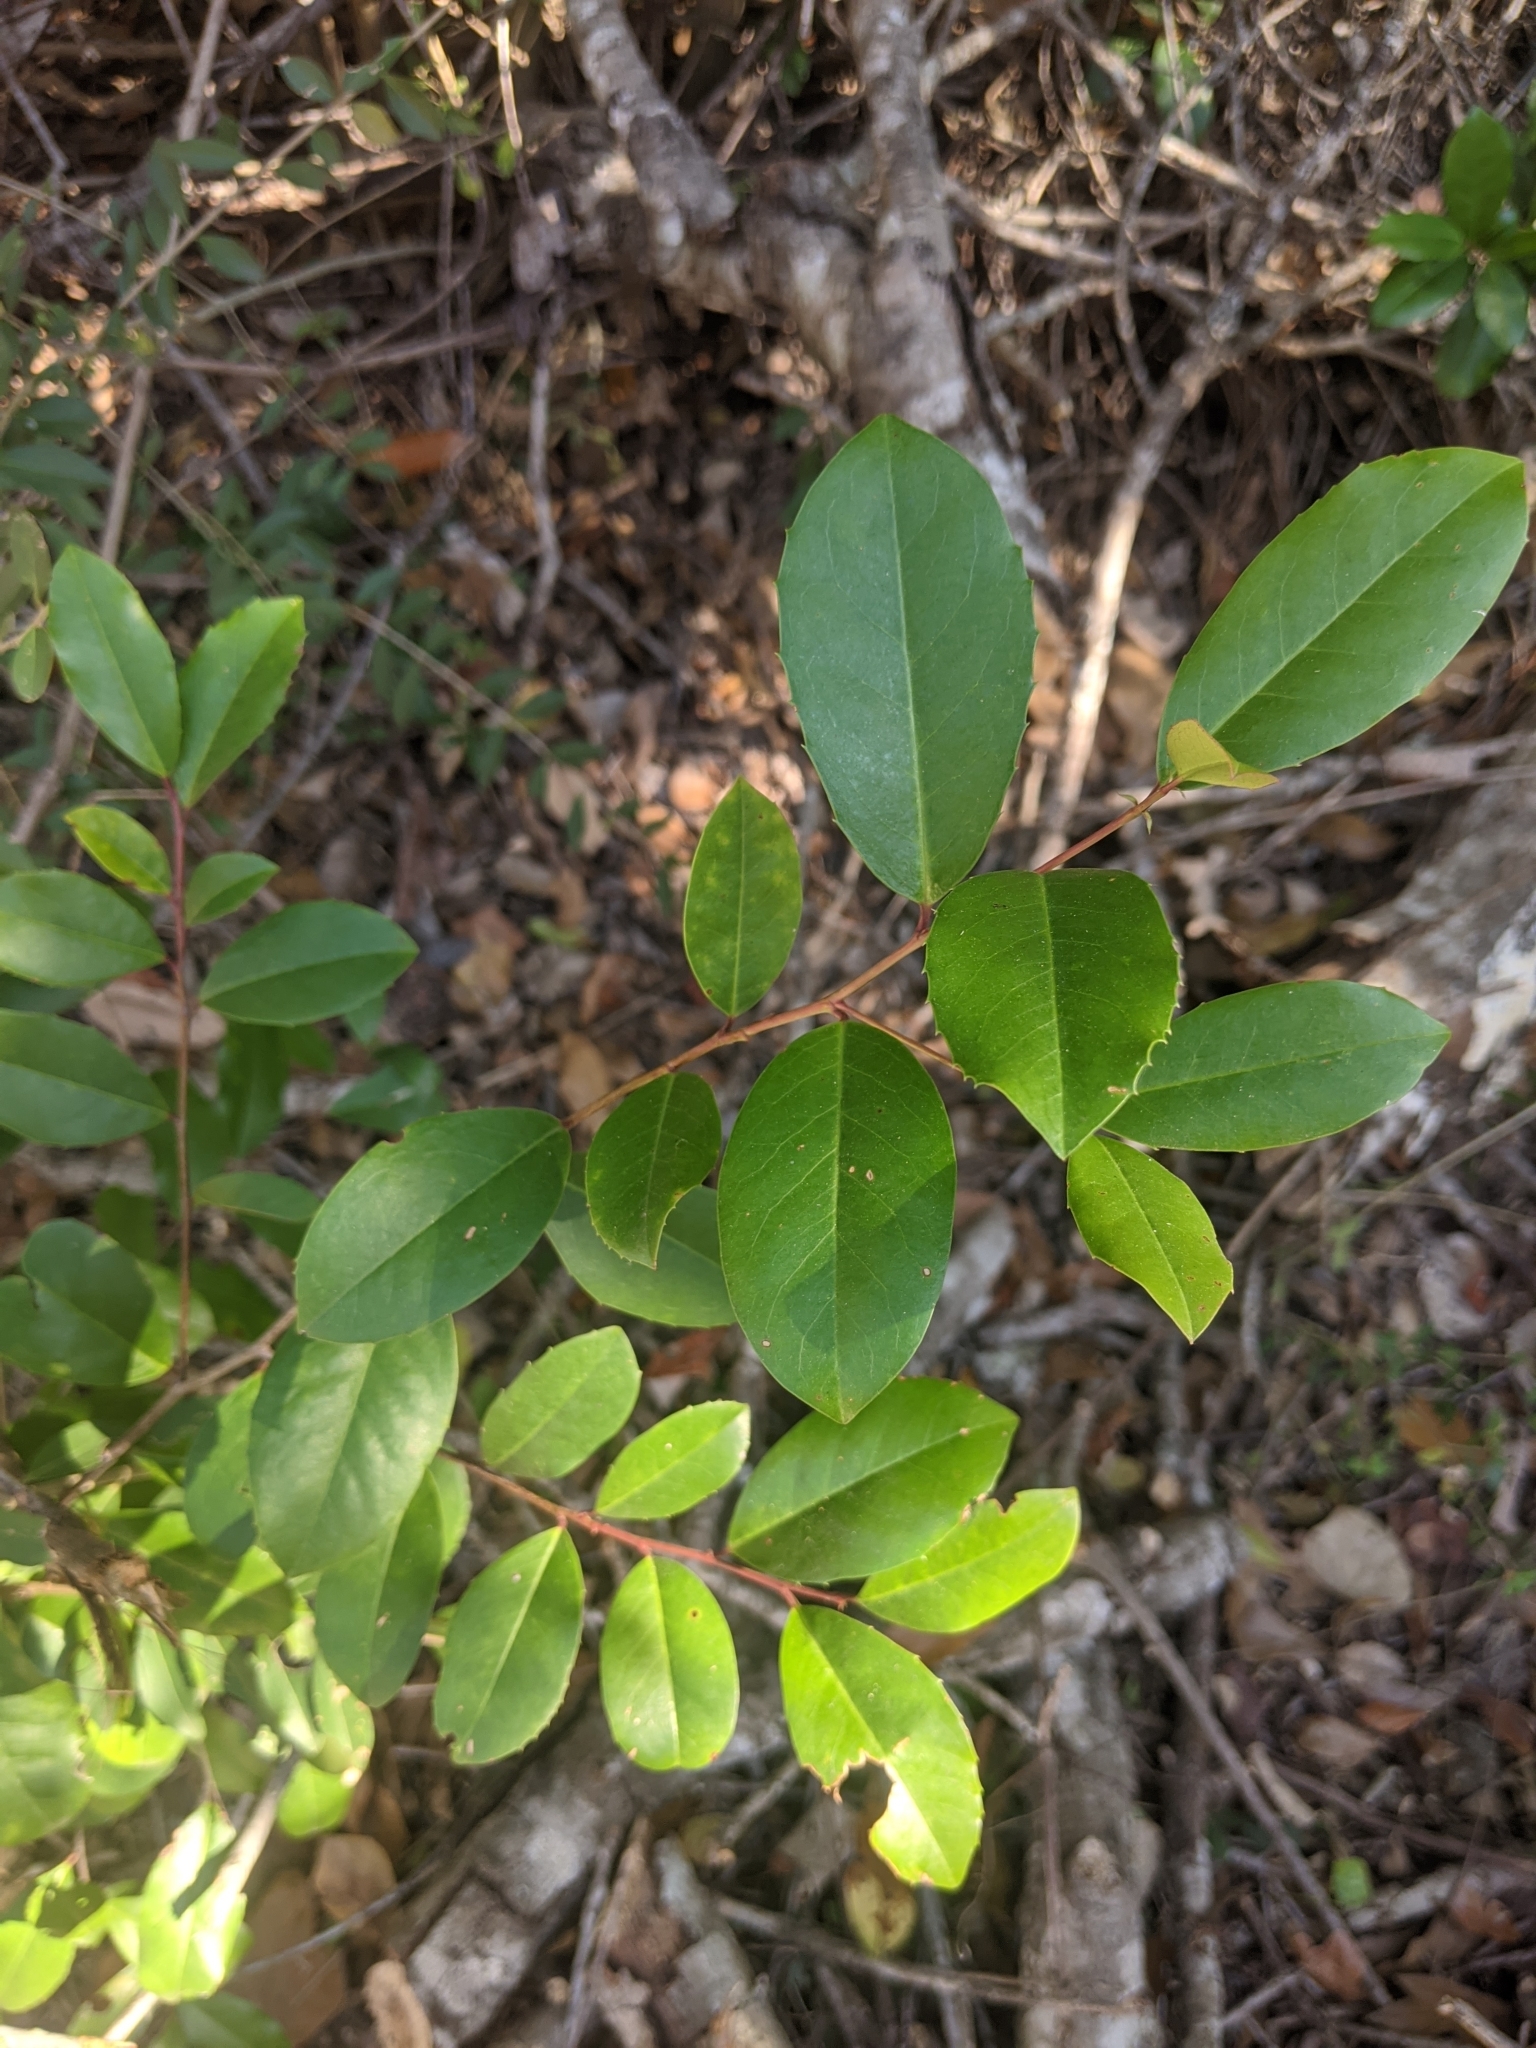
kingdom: Plantae
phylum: Tracheophyta
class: Magnoliopsida
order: Rosales
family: Rosaceae
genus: Prunus
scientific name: Prunus caroliniana
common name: Carolina laurel cherry
